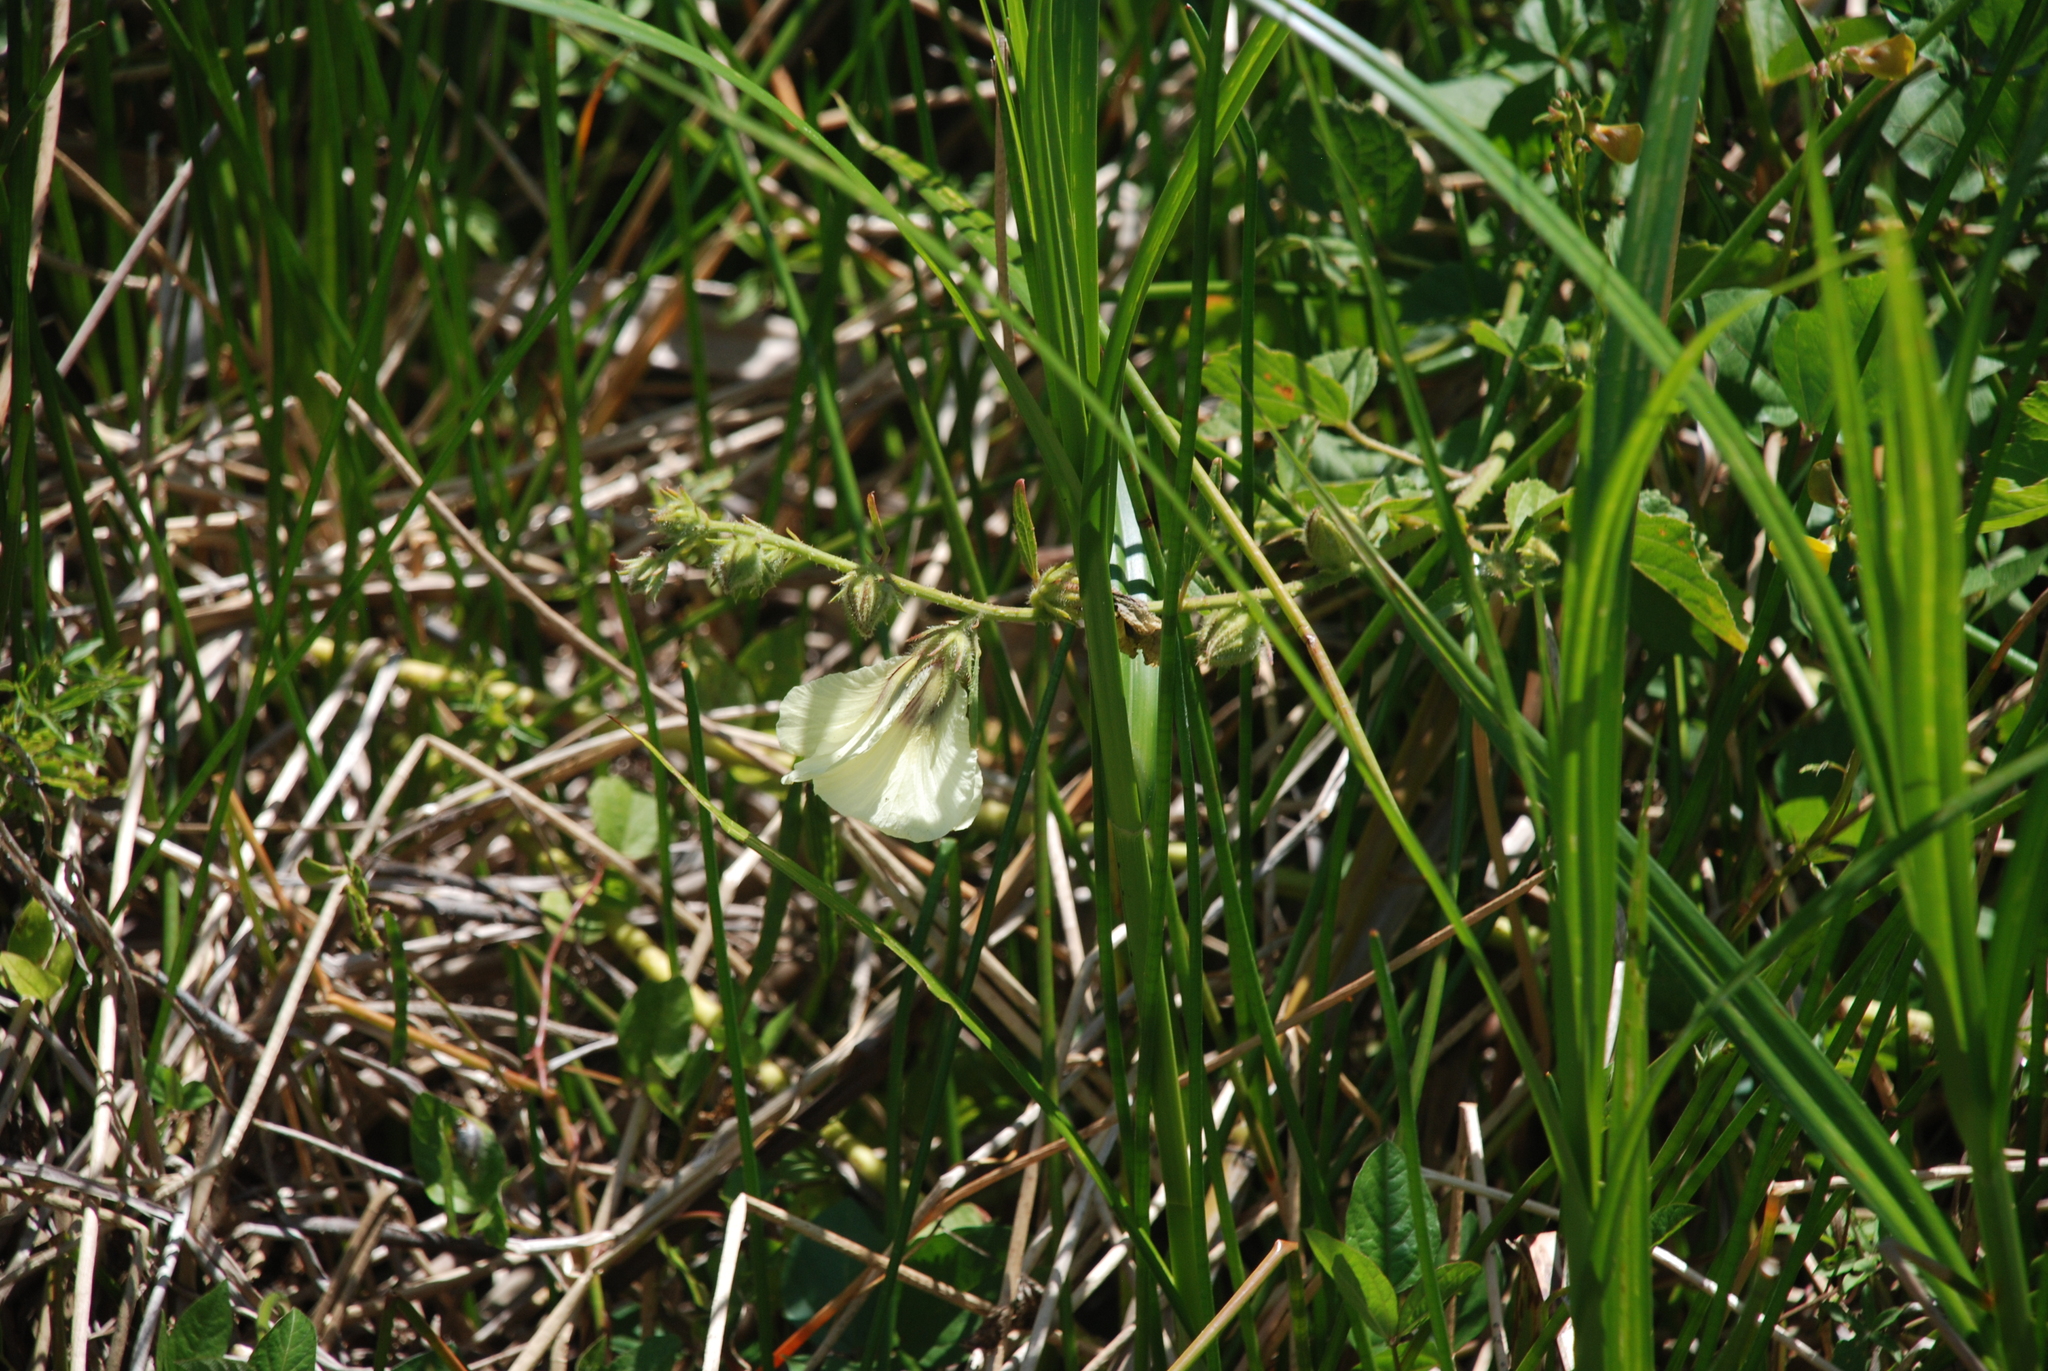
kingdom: Plantae
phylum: Tracheophyta
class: Magnoliopsida
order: Malvales
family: Malvaceae
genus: Hibiscus
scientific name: Hibiscus diversifolius
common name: Cape hibiscus
